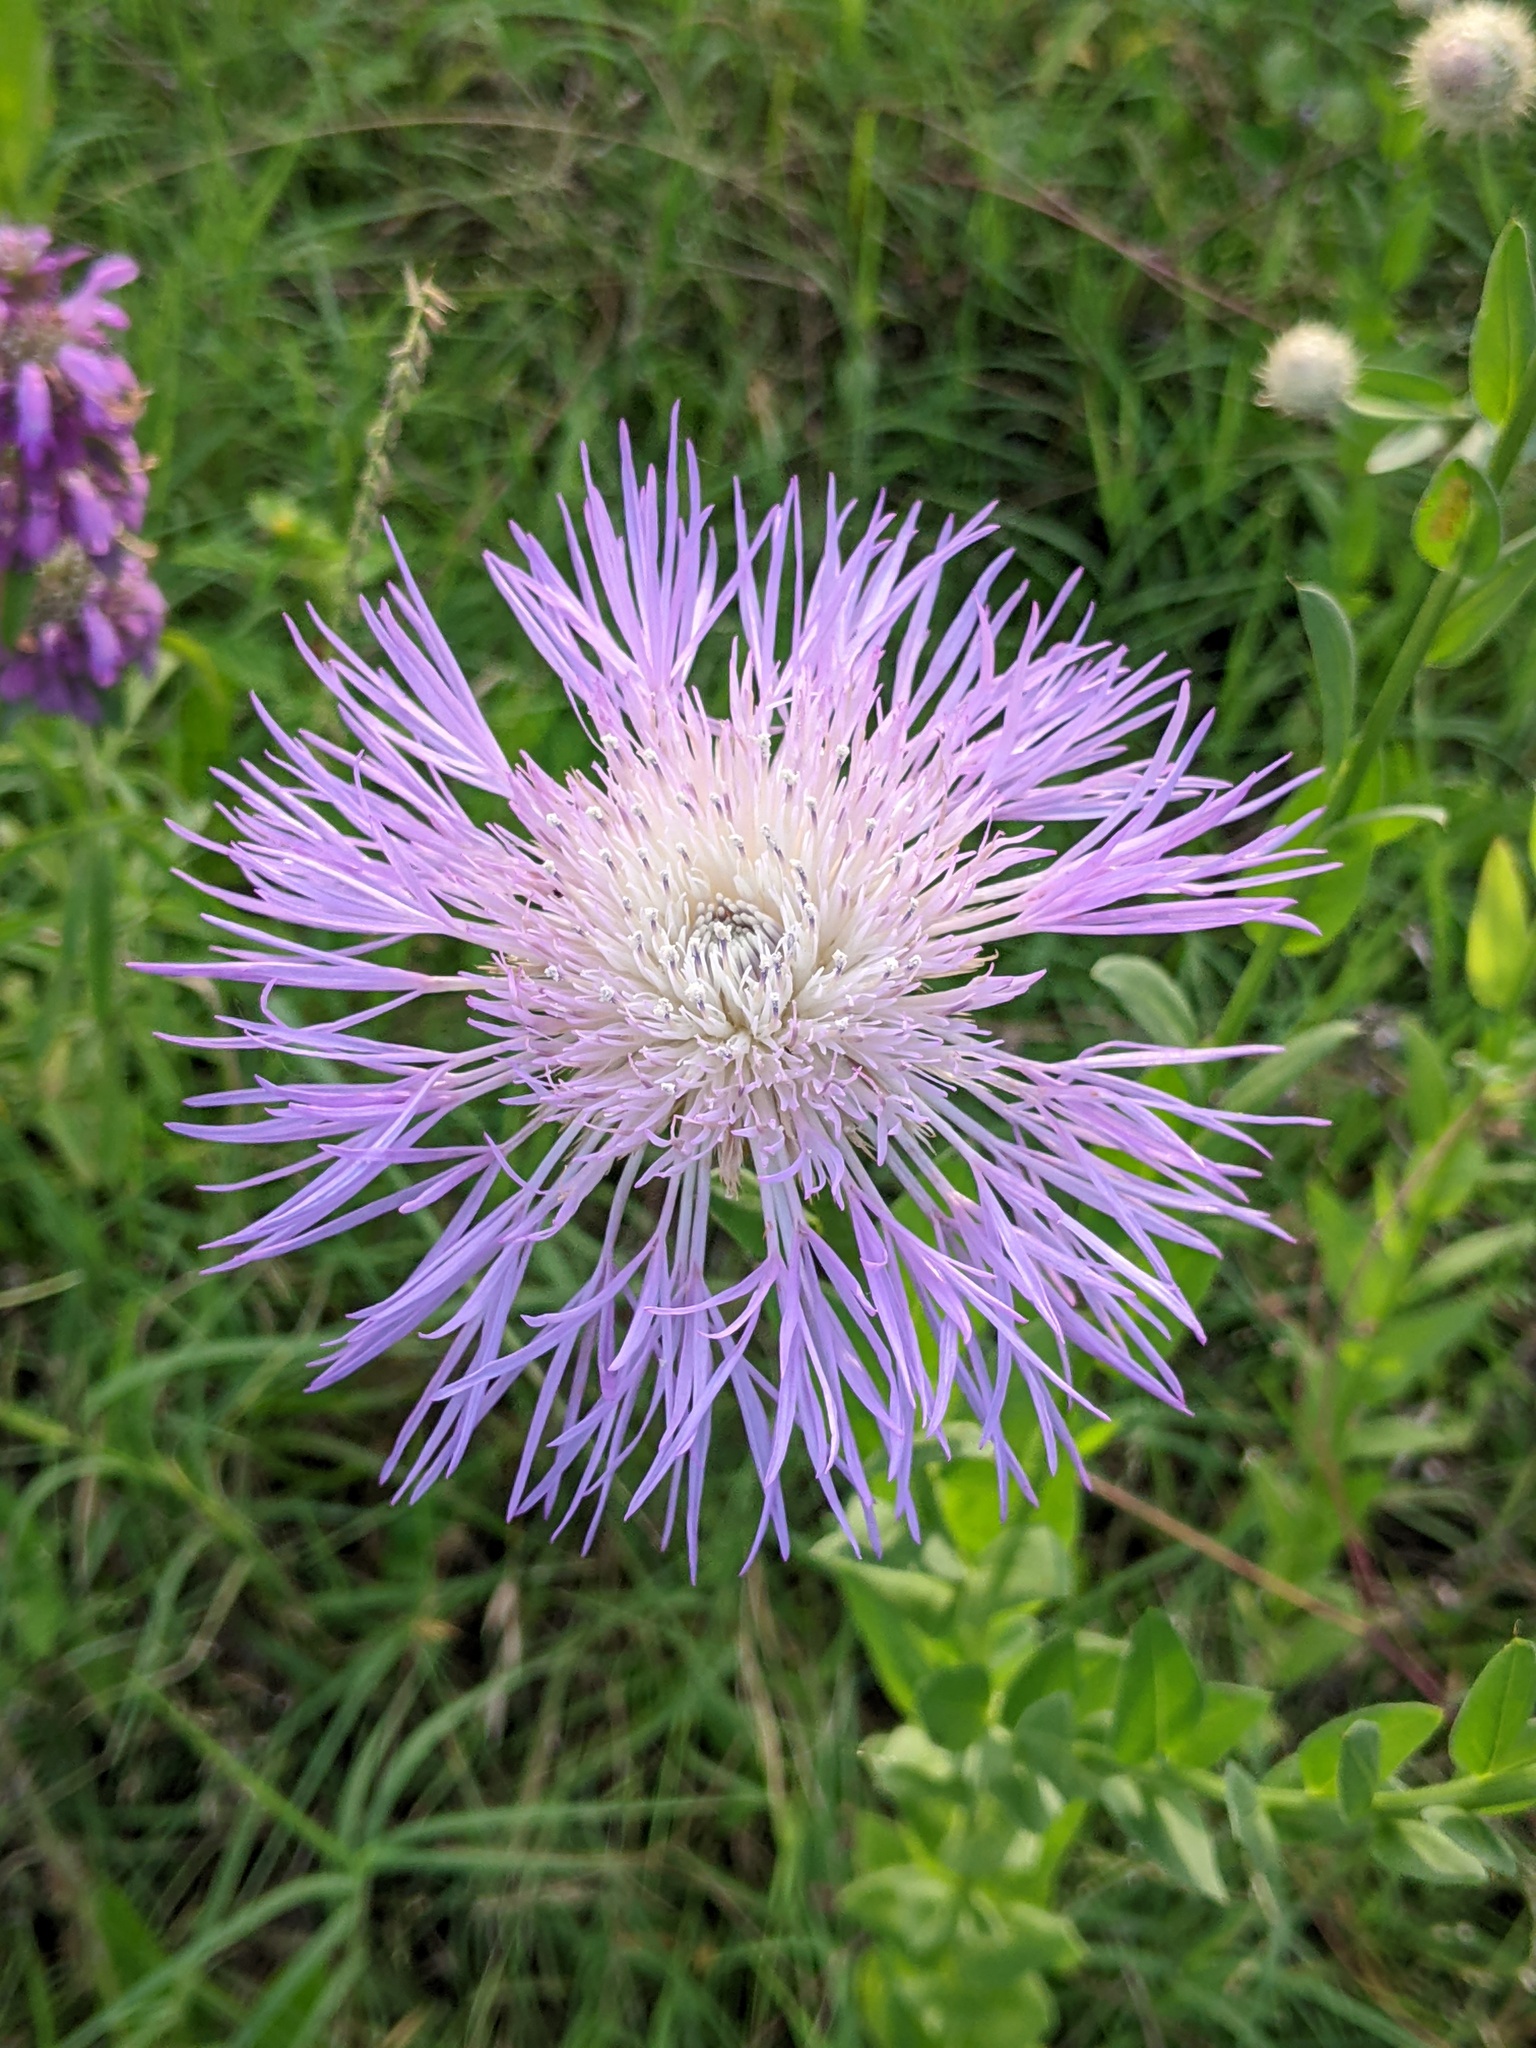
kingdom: Plantae
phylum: Tracheophyta
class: Magnoliopsida
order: Asterales
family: Asteraceae
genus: Plectocephalus
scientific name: Plectocephalus americanus
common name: American basket-flower
